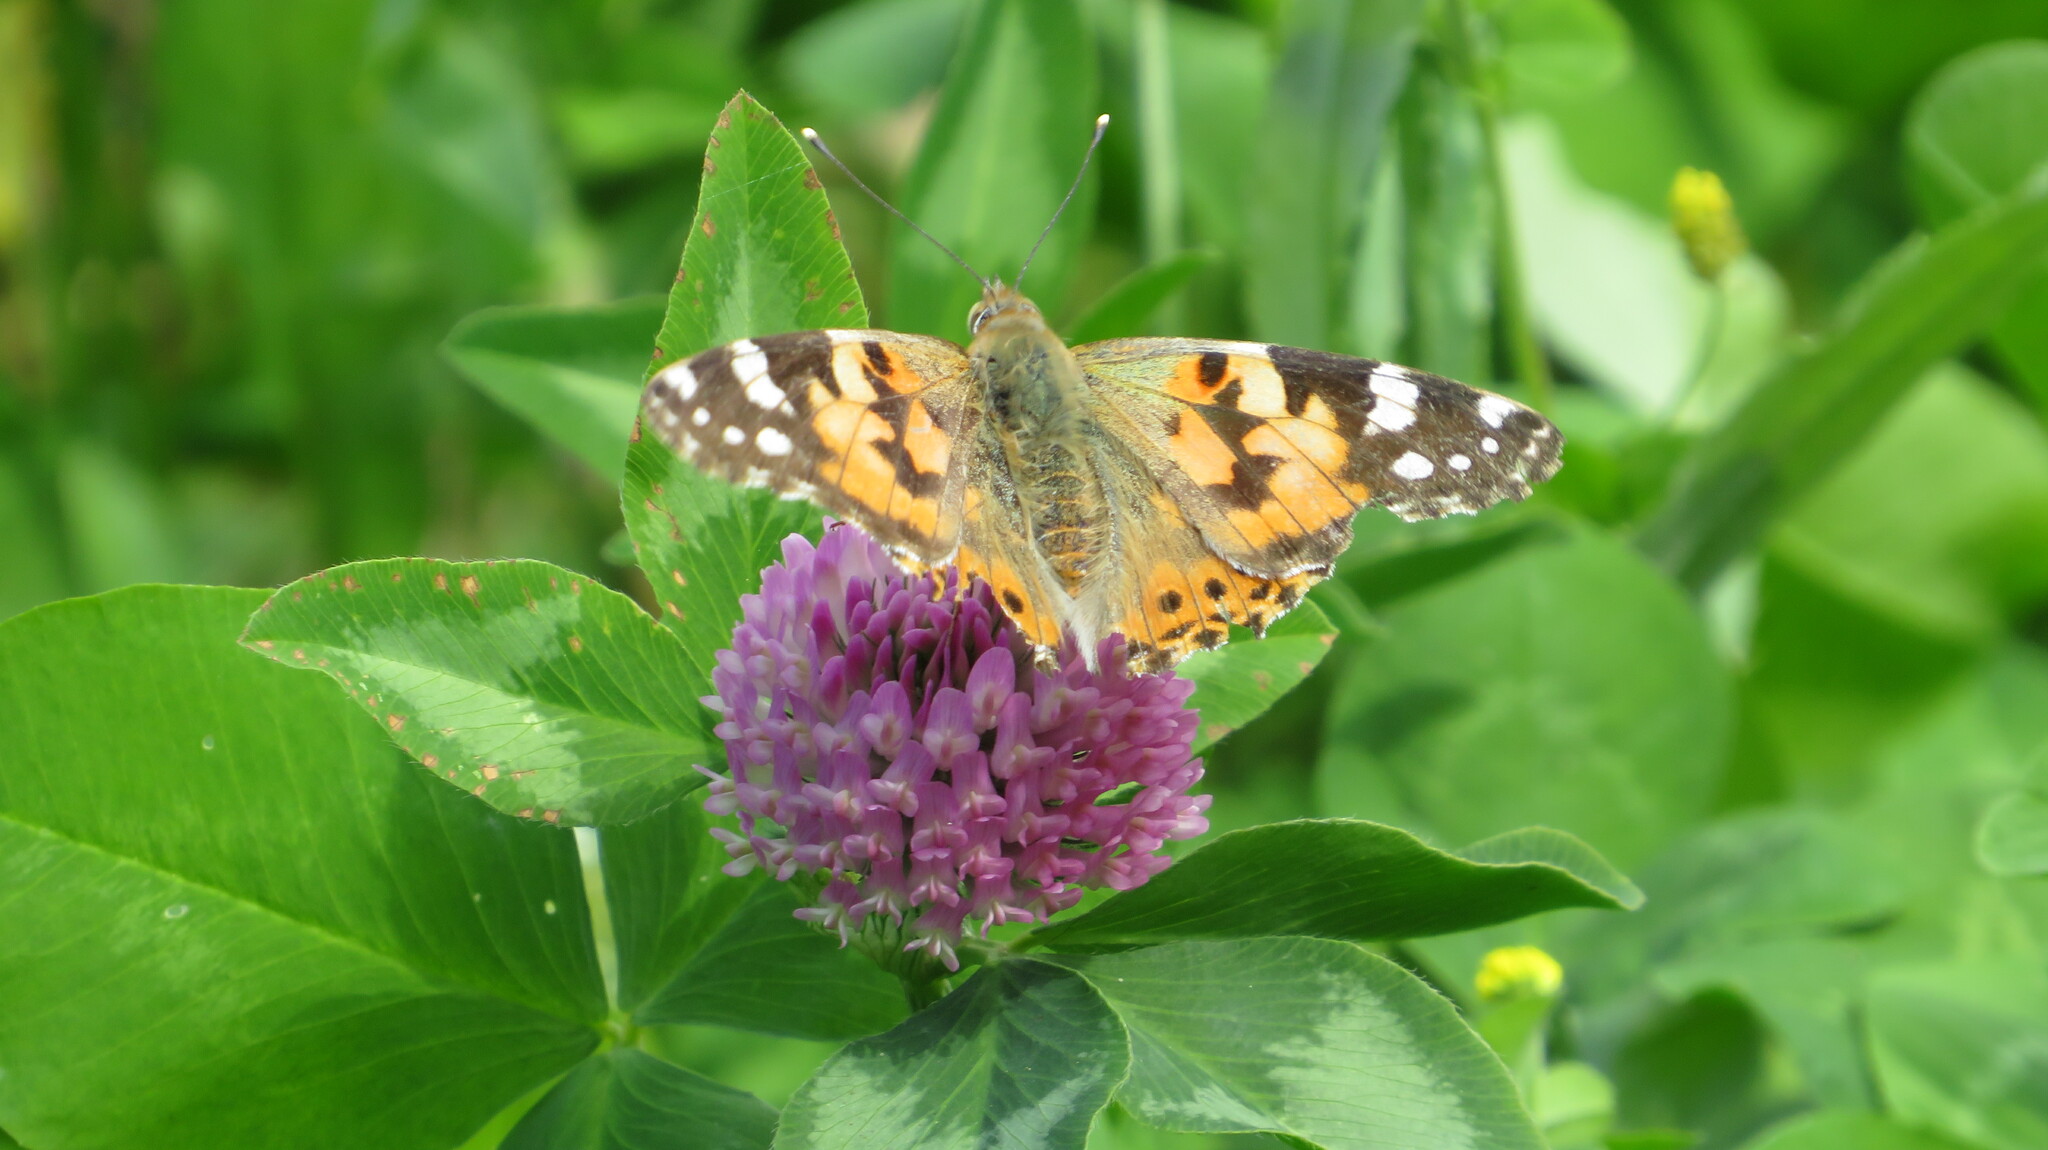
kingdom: Animalia
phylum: Arthropoda
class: Insecta
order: Lepidoptera
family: Nymphalidae
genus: Vanessa
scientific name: Vanessa cardui
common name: Painted lady
